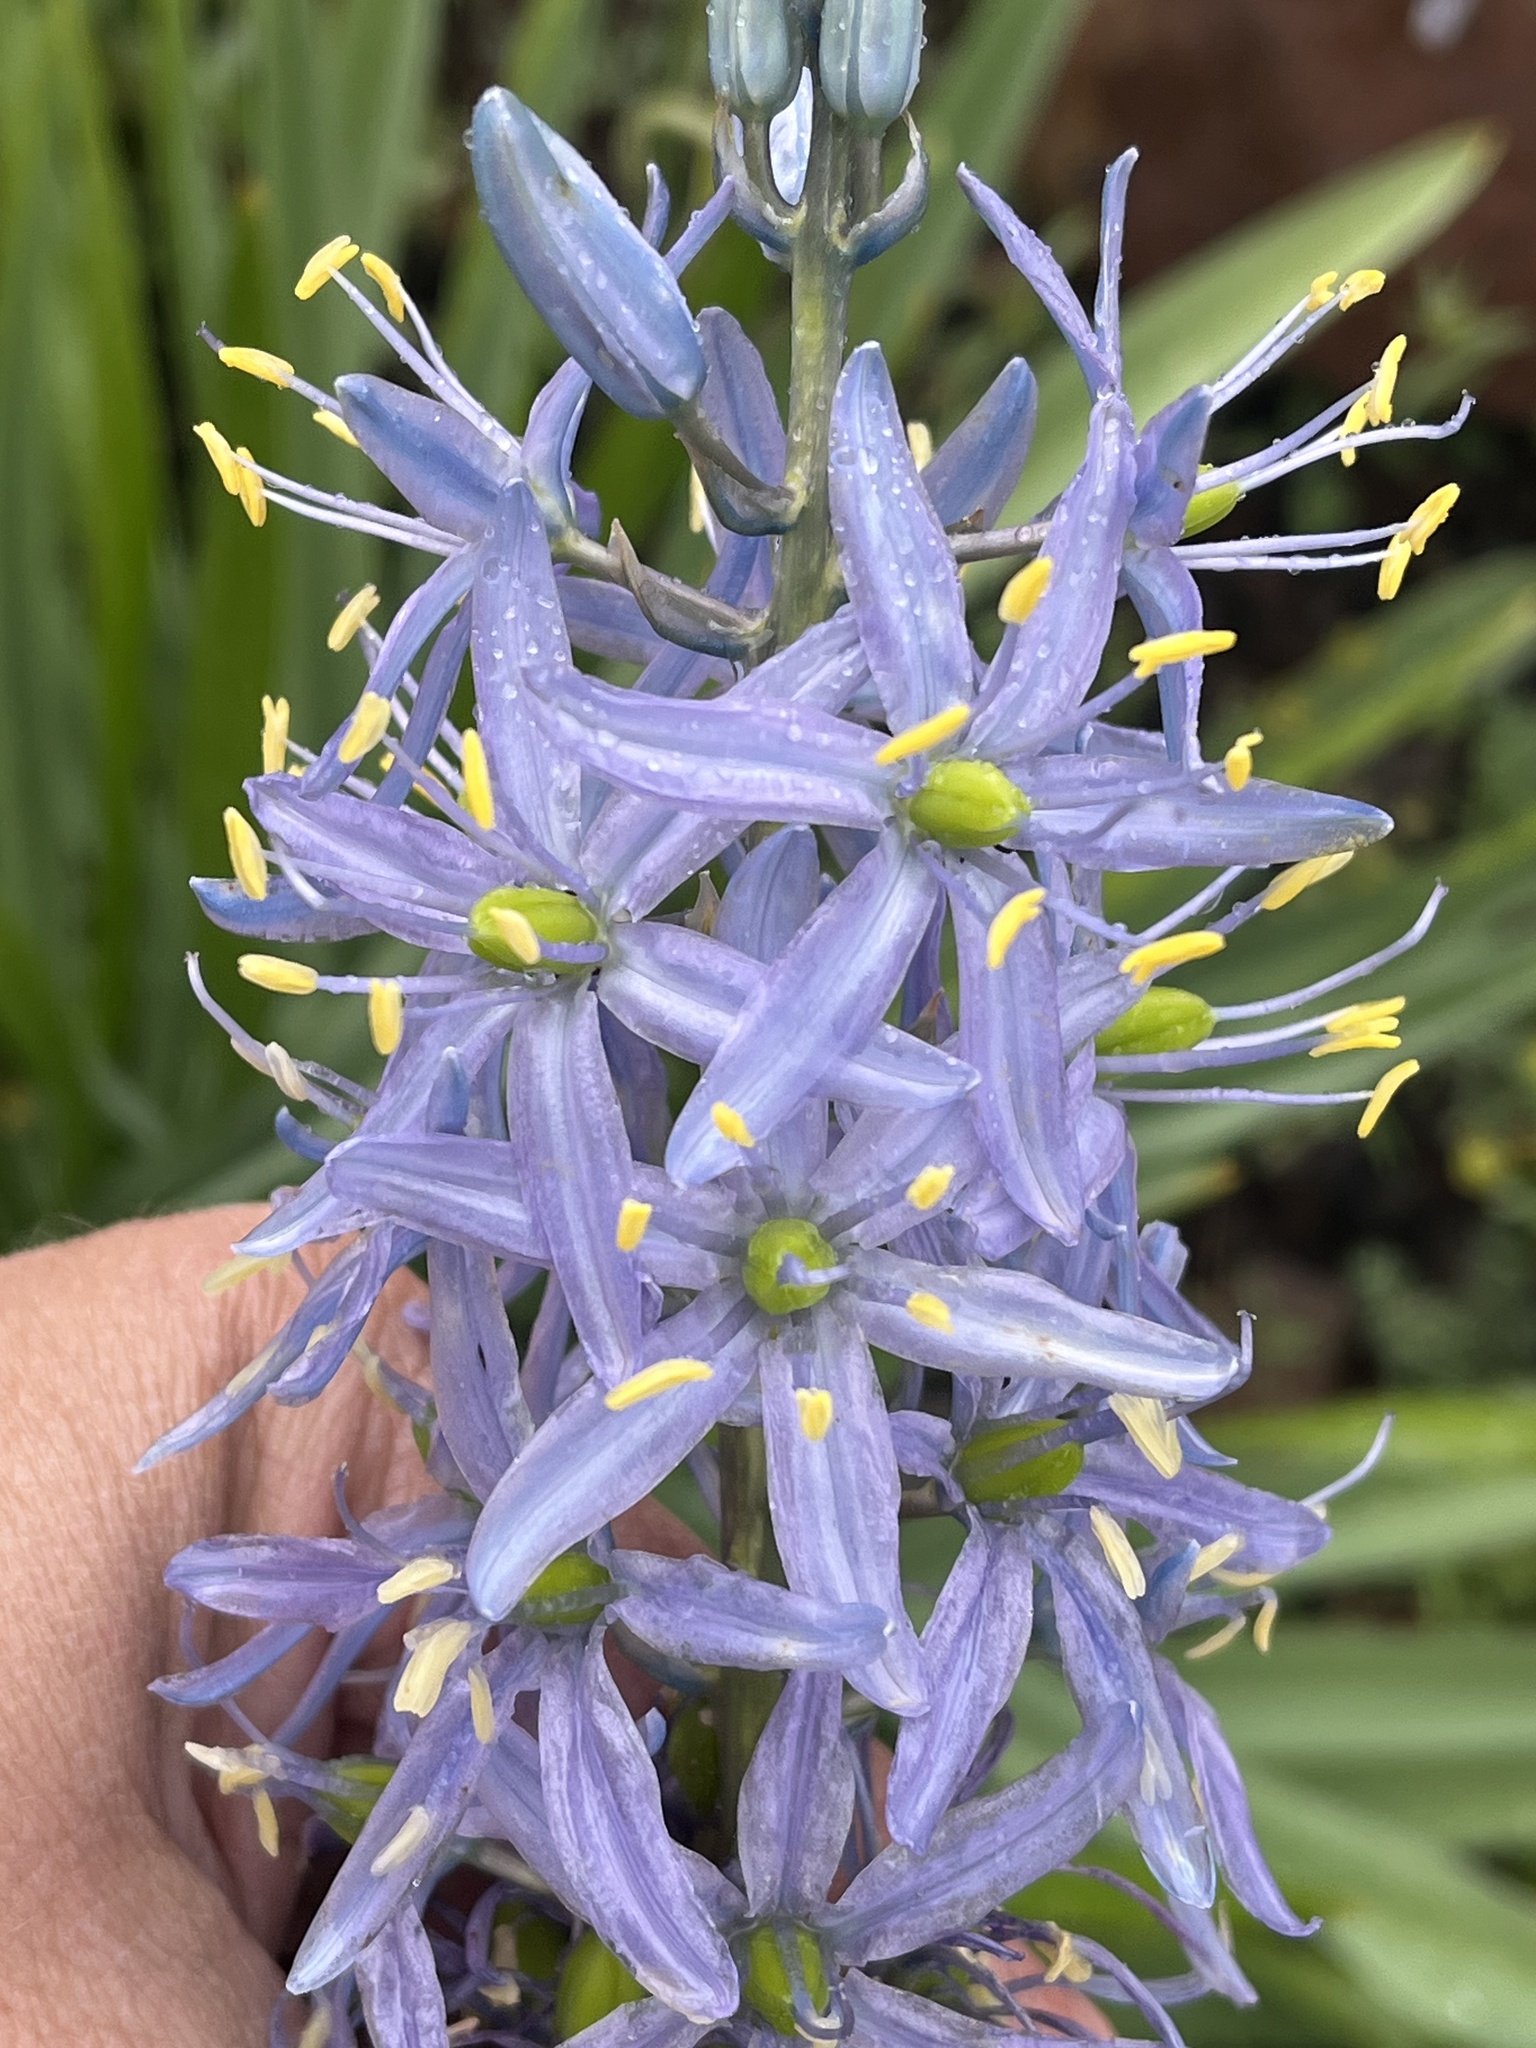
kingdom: Plantae
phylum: Tracheophyta
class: Liliopsida
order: Asparagales
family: Asparagaceae
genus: Camassia
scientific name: Camassia cusickii
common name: Cusick camas
